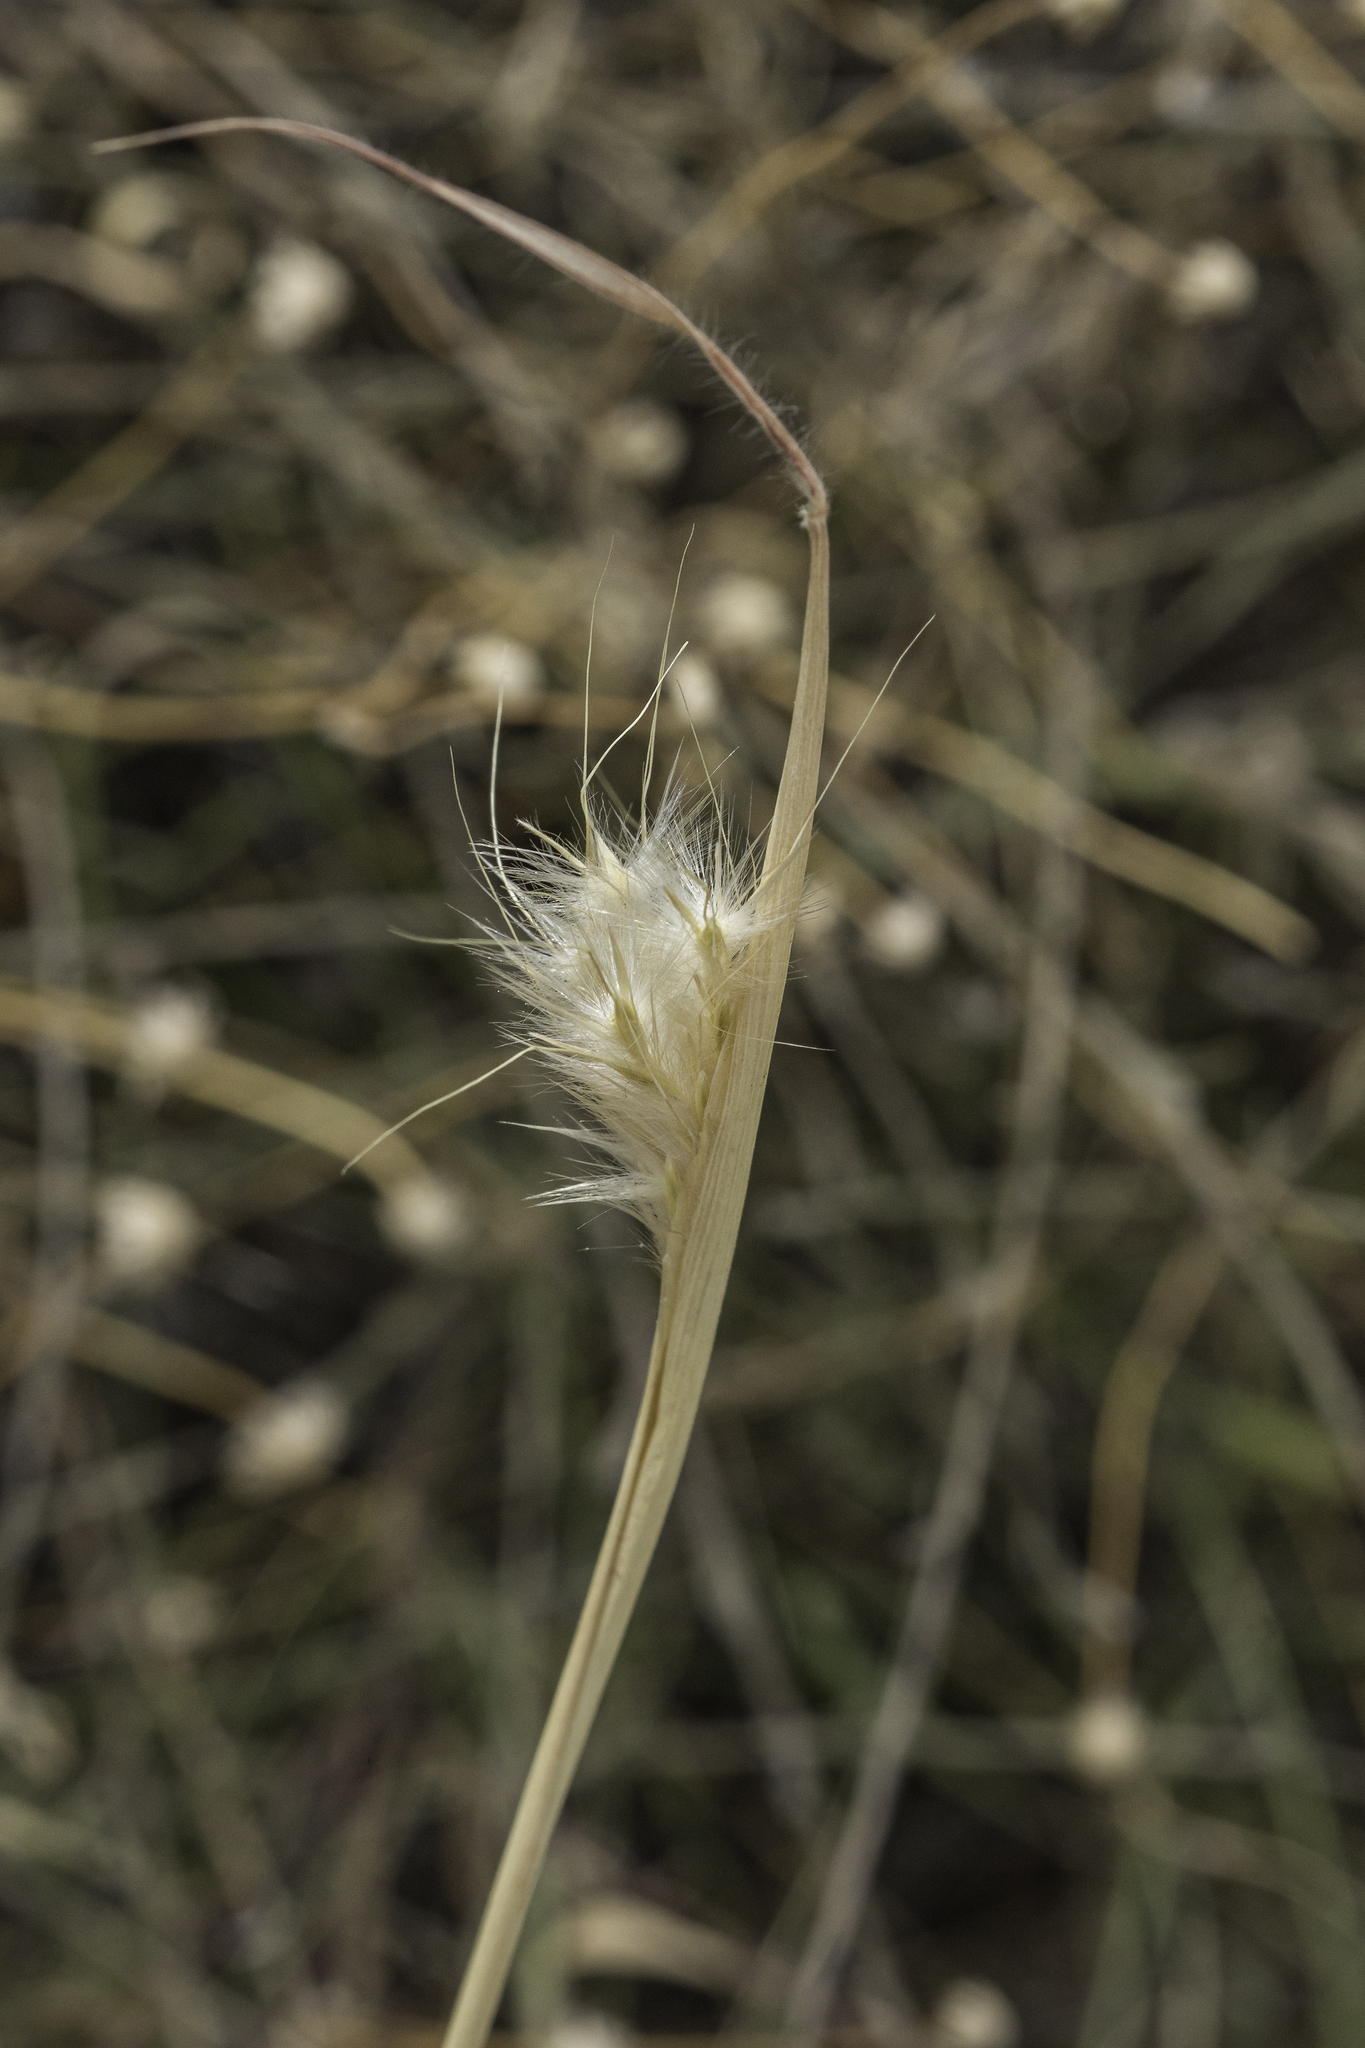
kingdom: Plantae
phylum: Tracheophyta
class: Liliopsida
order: Poales
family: Poaceae
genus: Bothriochloa
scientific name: Bothriochloa barbinodis
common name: Cane bluestem
